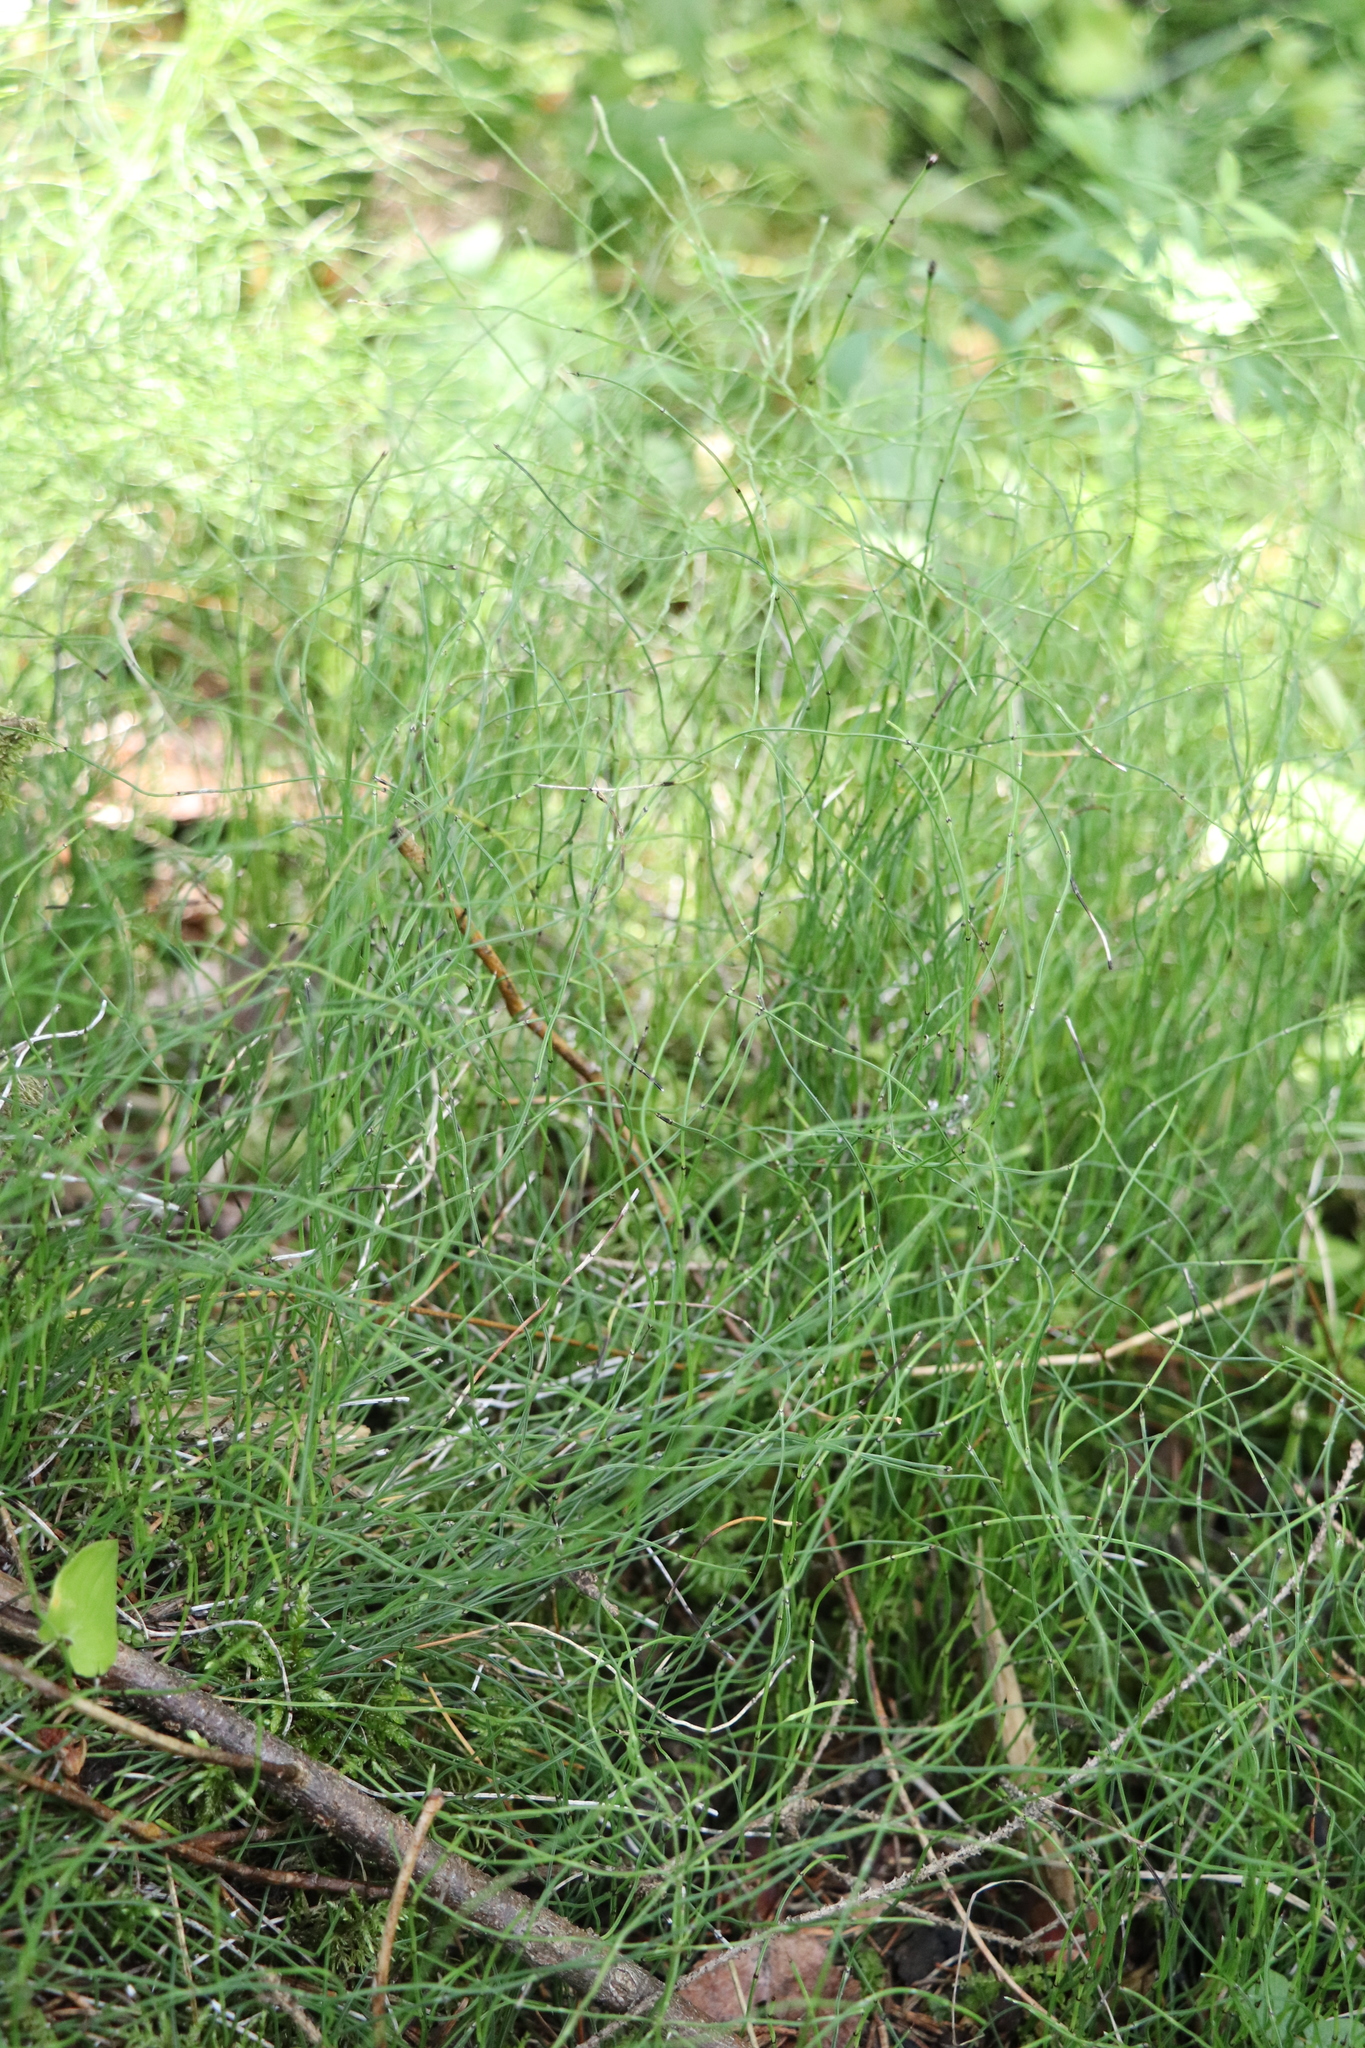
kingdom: Plantae
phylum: Tracheophyta
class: Polypodiopsida
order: Equisetales
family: Equisetaceae
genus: Equisetum
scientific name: Equisetum scirpoides
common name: Delicate horsetail
